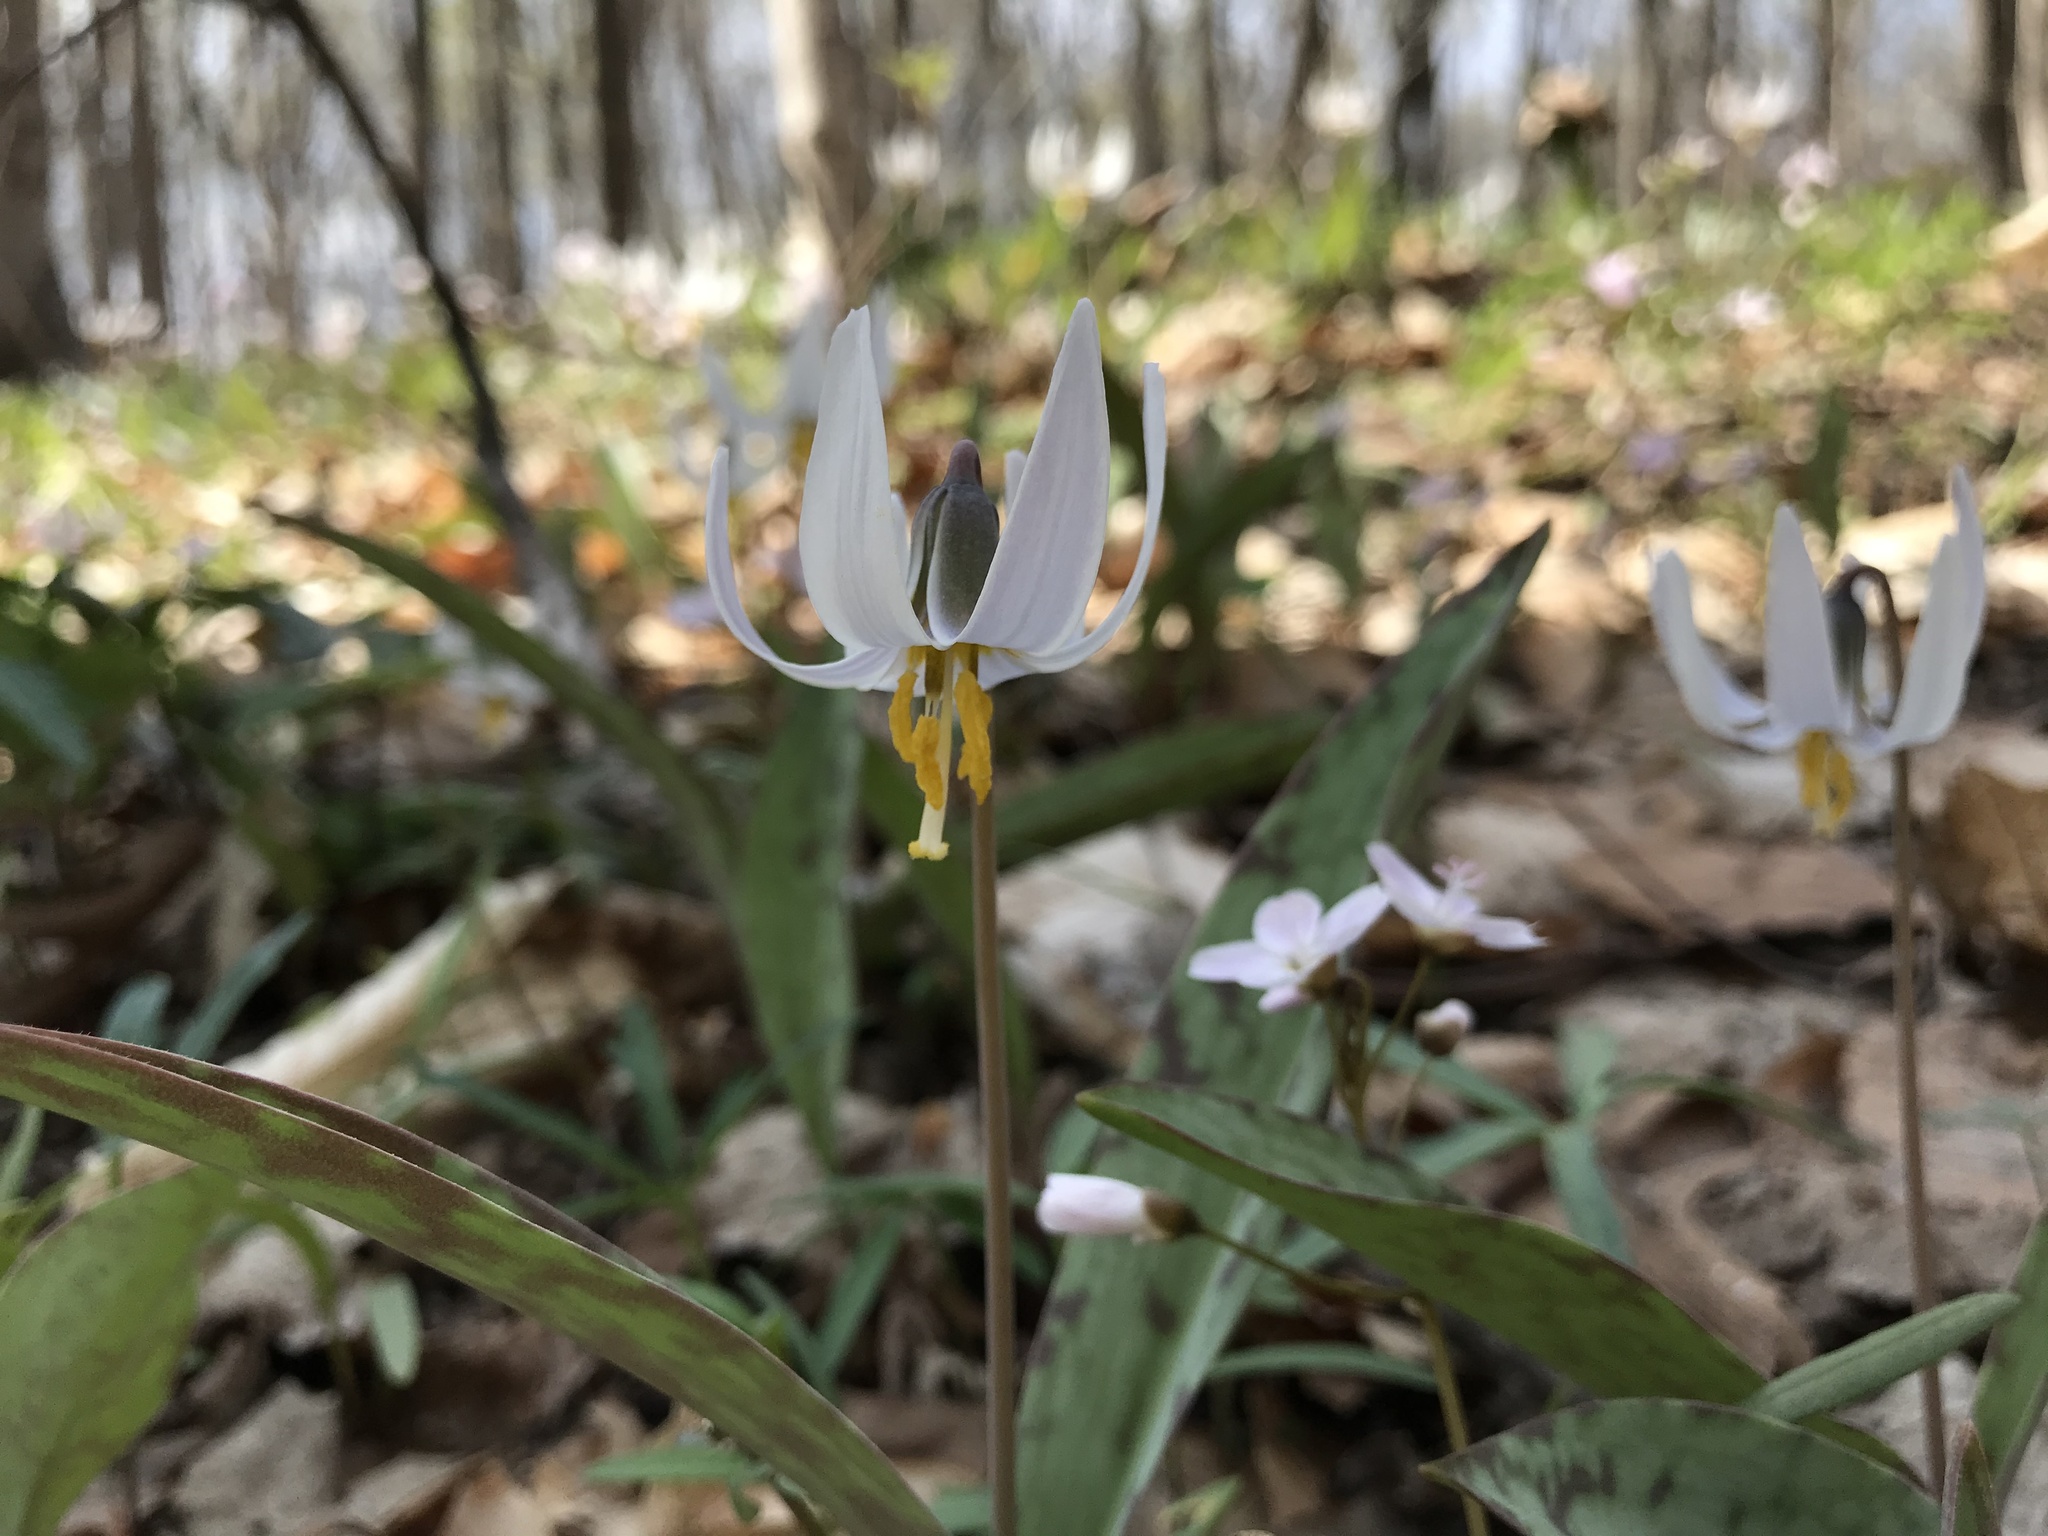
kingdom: Plantae
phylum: Tracheophyta
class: Liliopsida
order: Liliales
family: Liliaceae
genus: Erythronium
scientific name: Erythronium albidum
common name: White trout-lily
